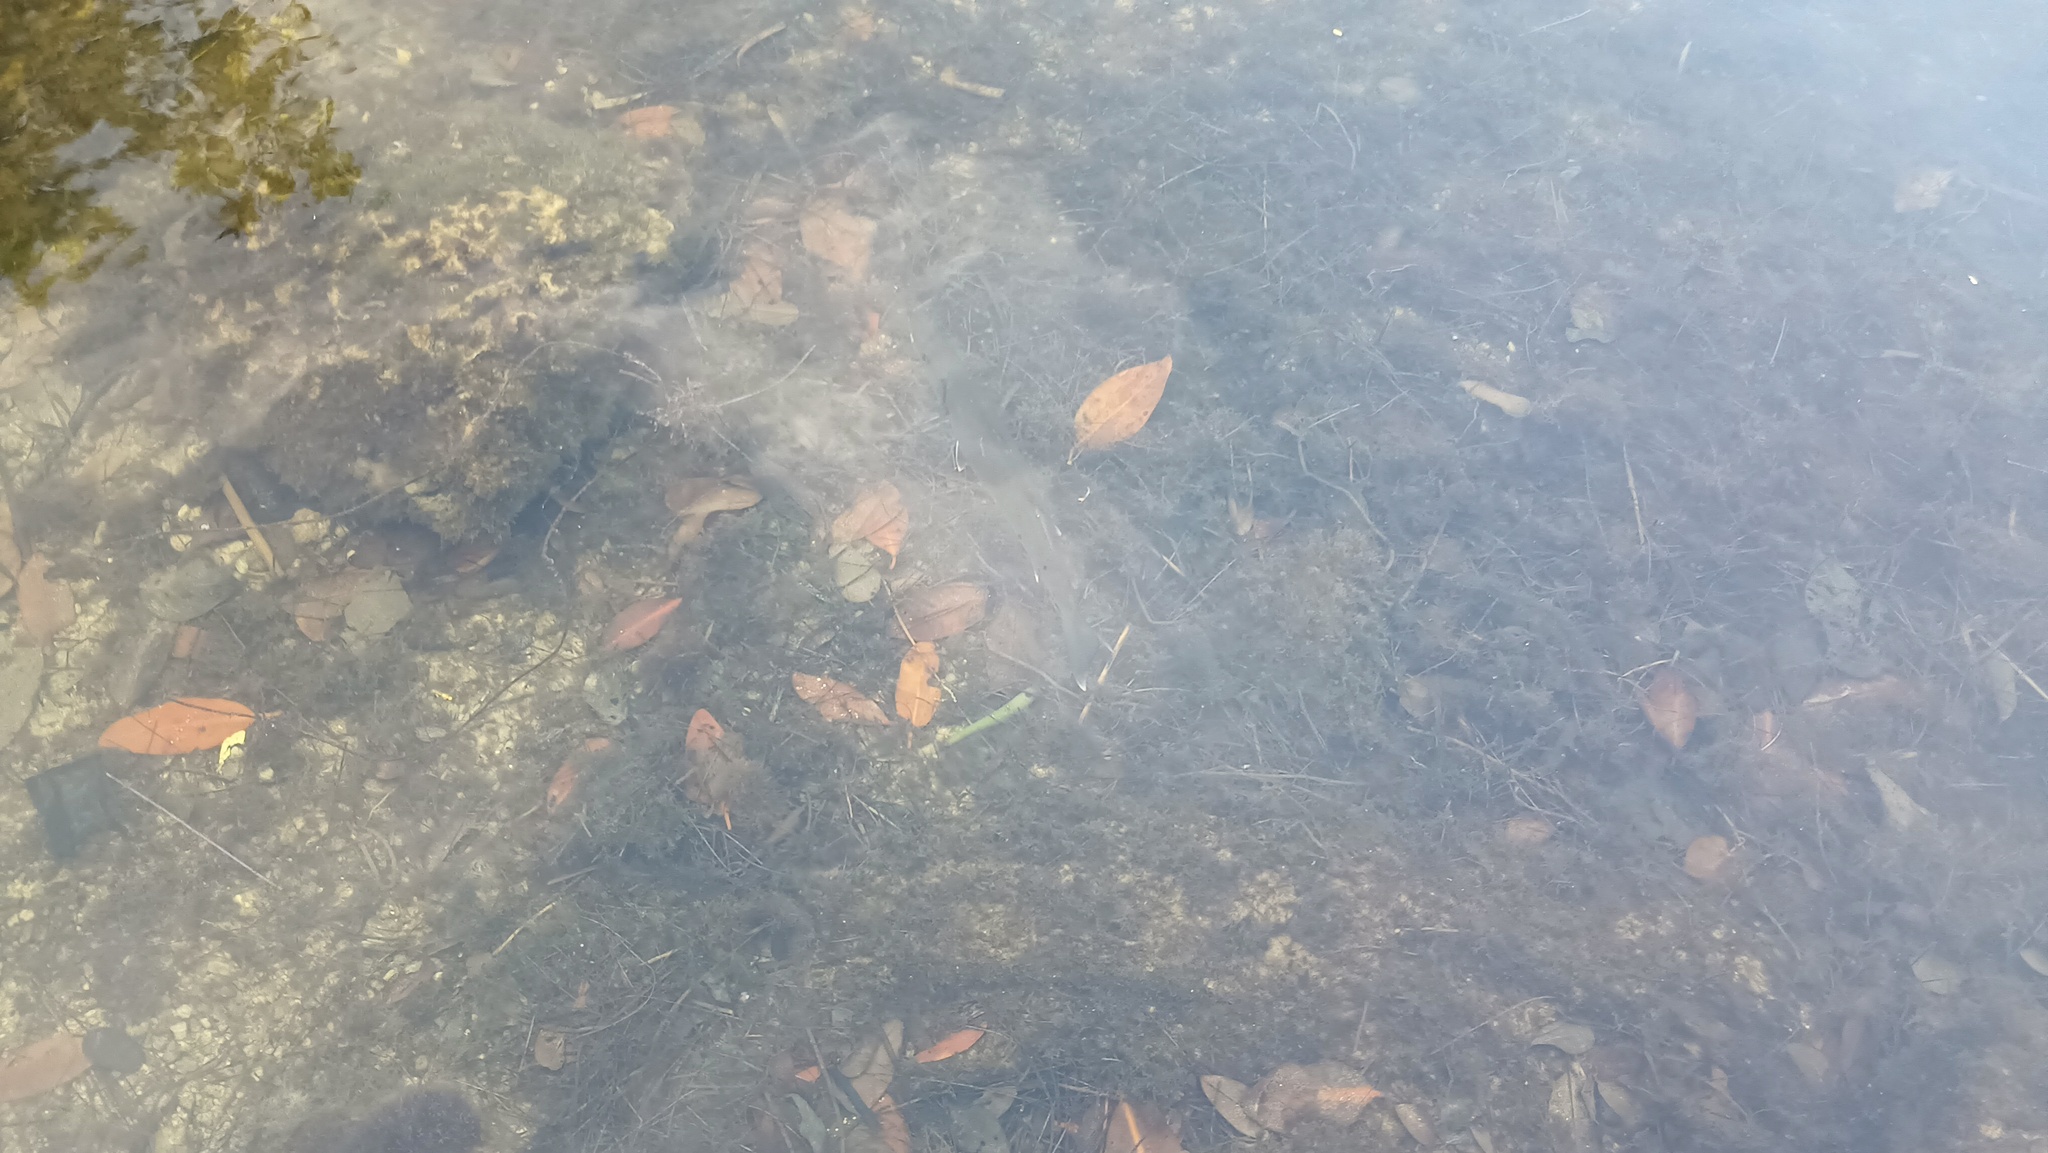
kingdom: Animalia
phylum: Chordata
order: Perciformes
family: Sphyraenidae
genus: Sphyraena
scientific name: Sphyraena barracuda
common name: Great barracuda
